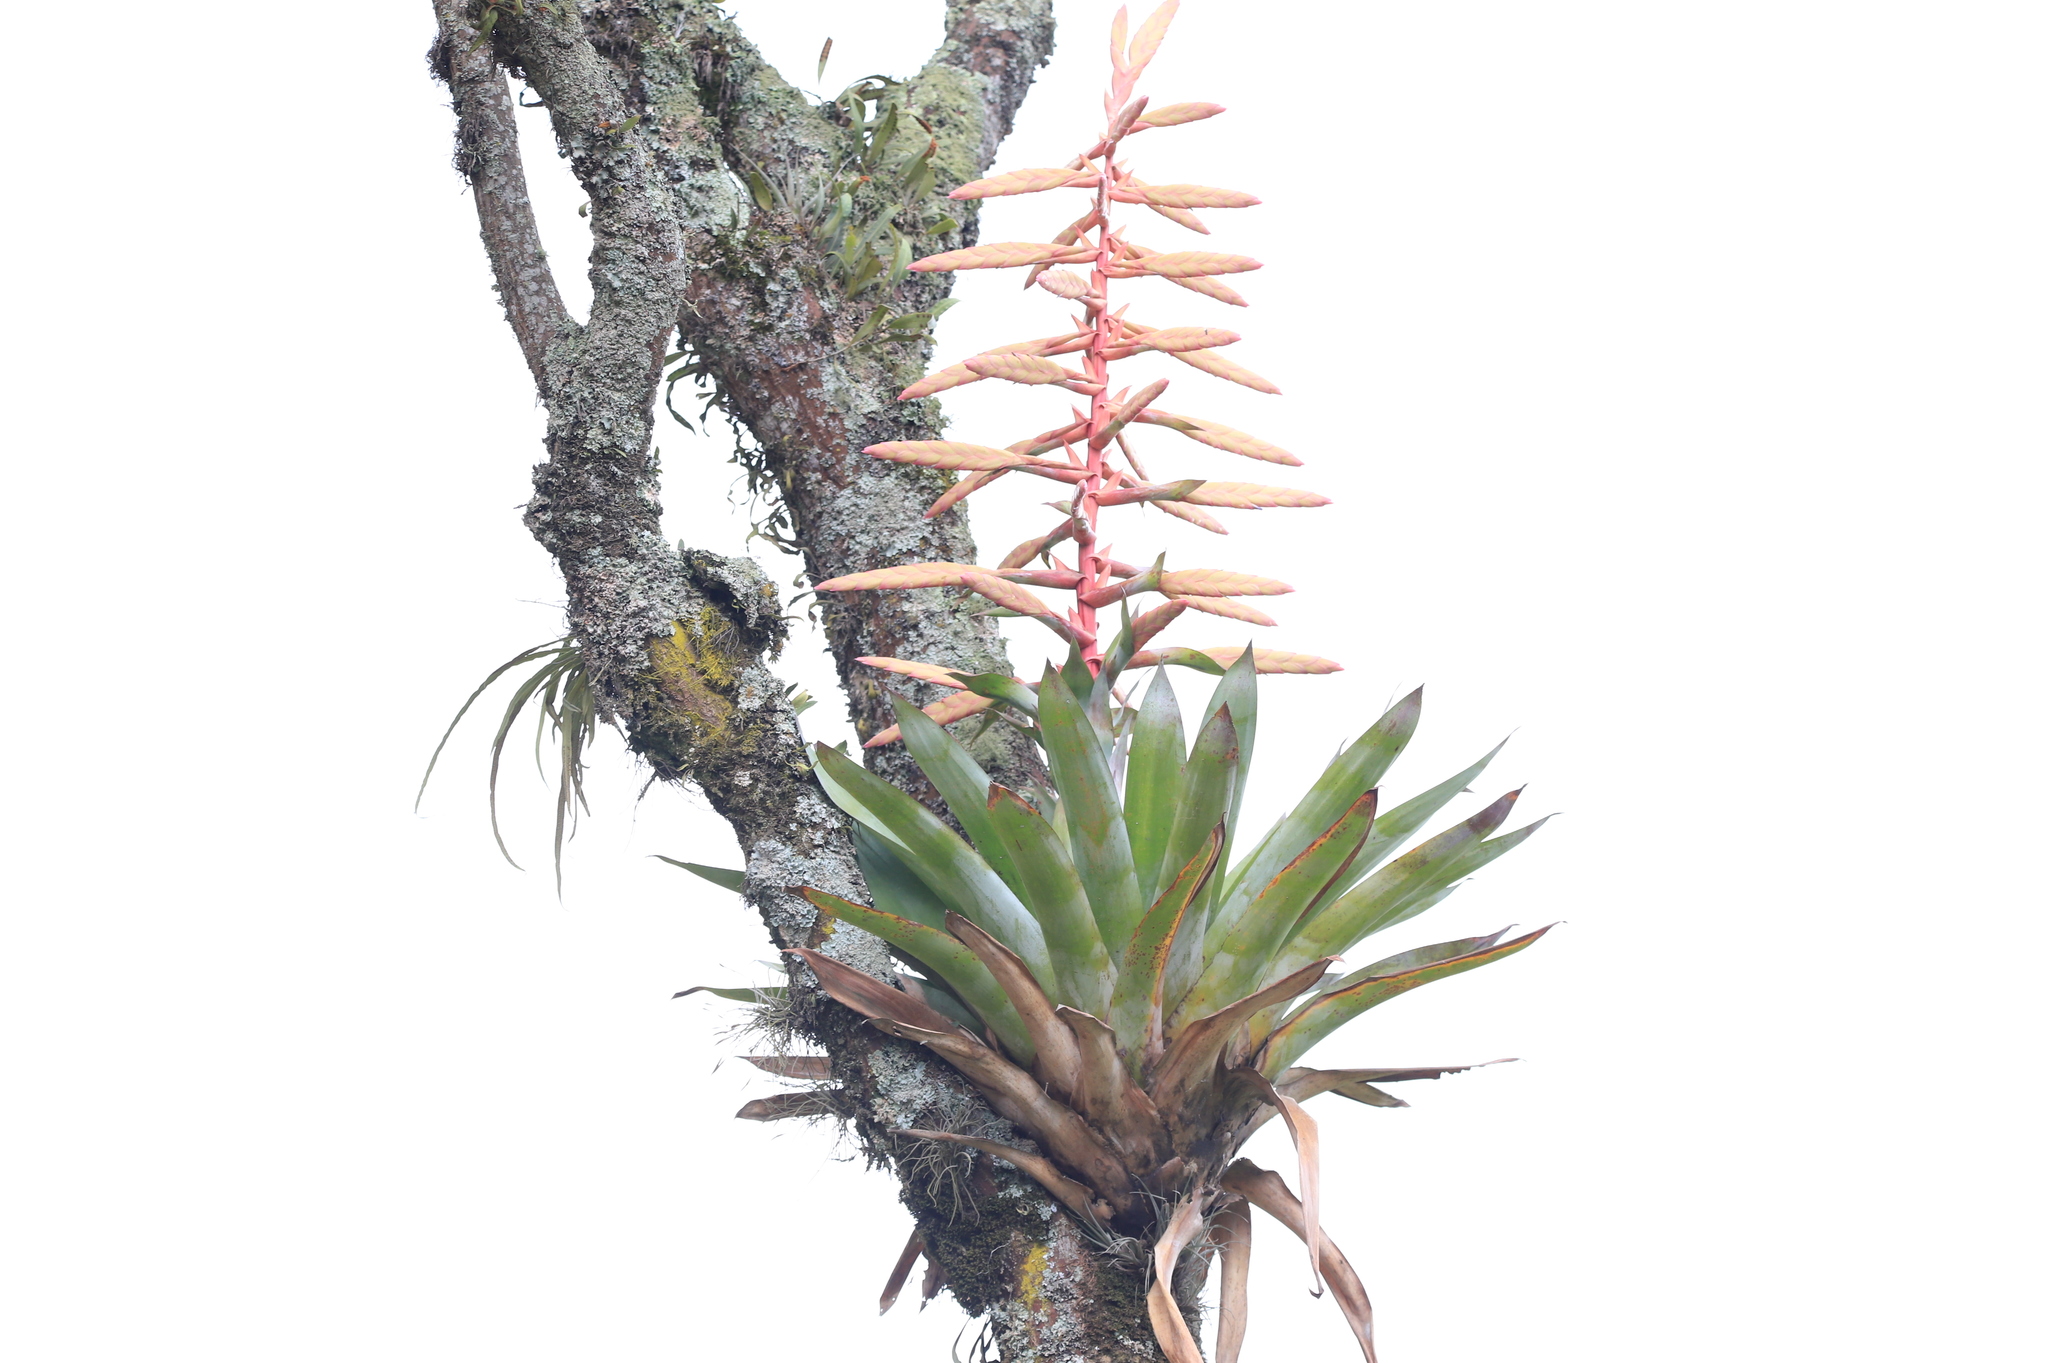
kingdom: Plantae
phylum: Tracheophyta
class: Liliopsida
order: Poales
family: Bromeliaceae
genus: Tillandsia
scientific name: Tillandsia fendleri
